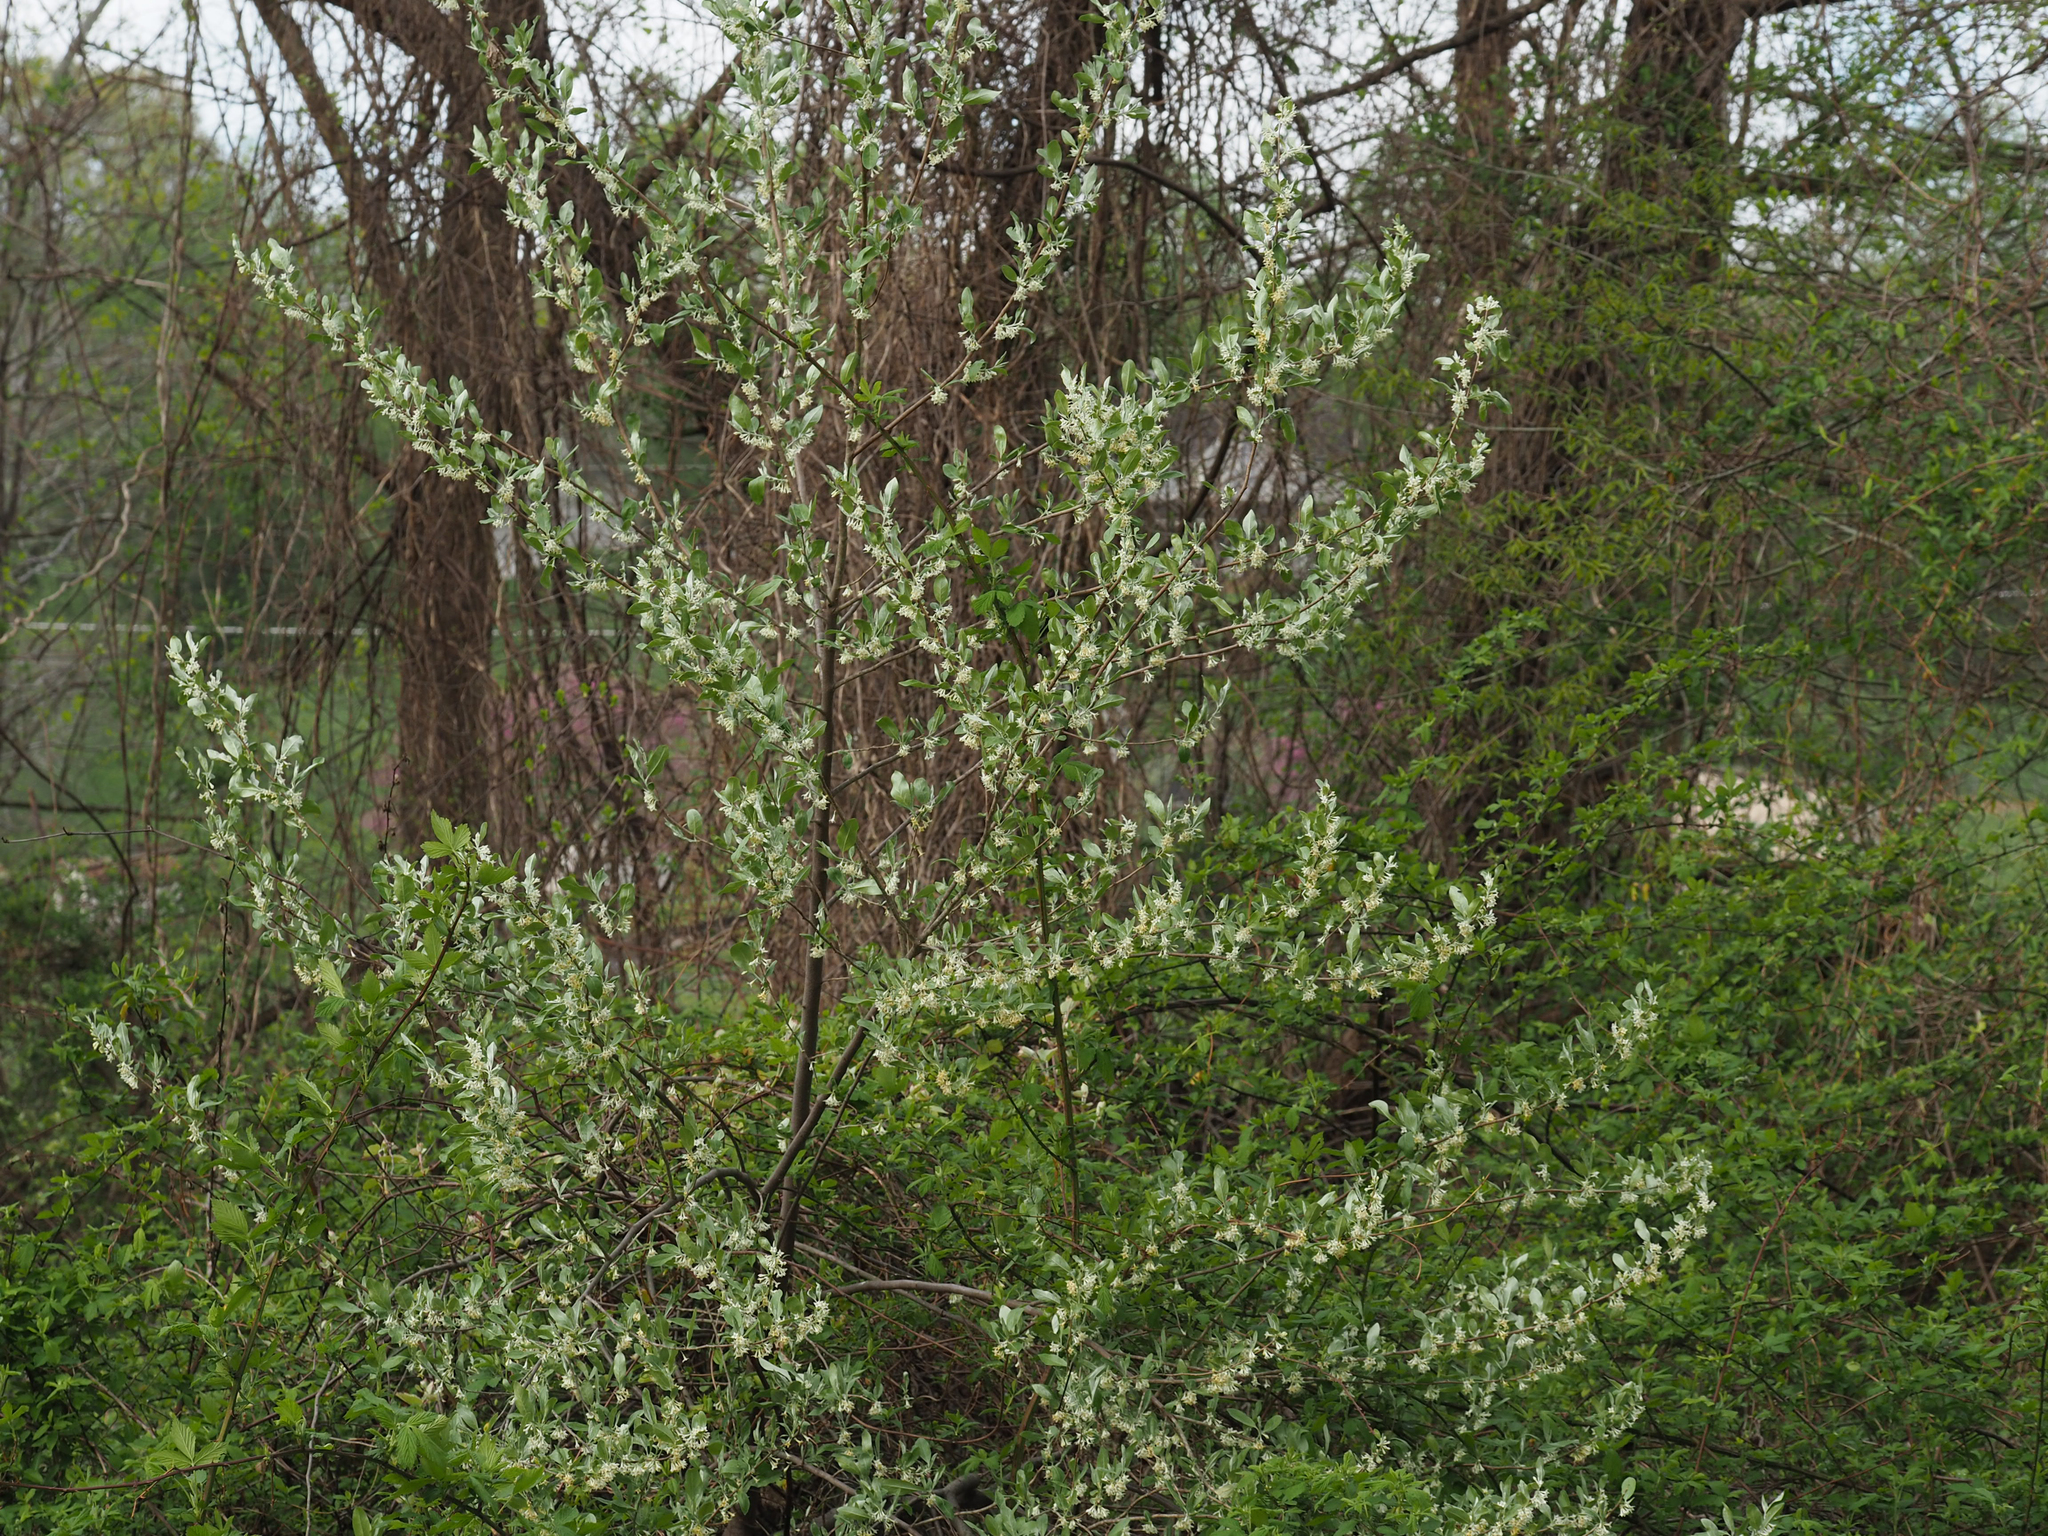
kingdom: Plantae
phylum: Tracheophyta
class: Magnoliopsida
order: Rosales
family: Elaeagnaceae
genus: Elaeagnus
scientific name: Elaeagnus umbellata
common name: Autumn olive
